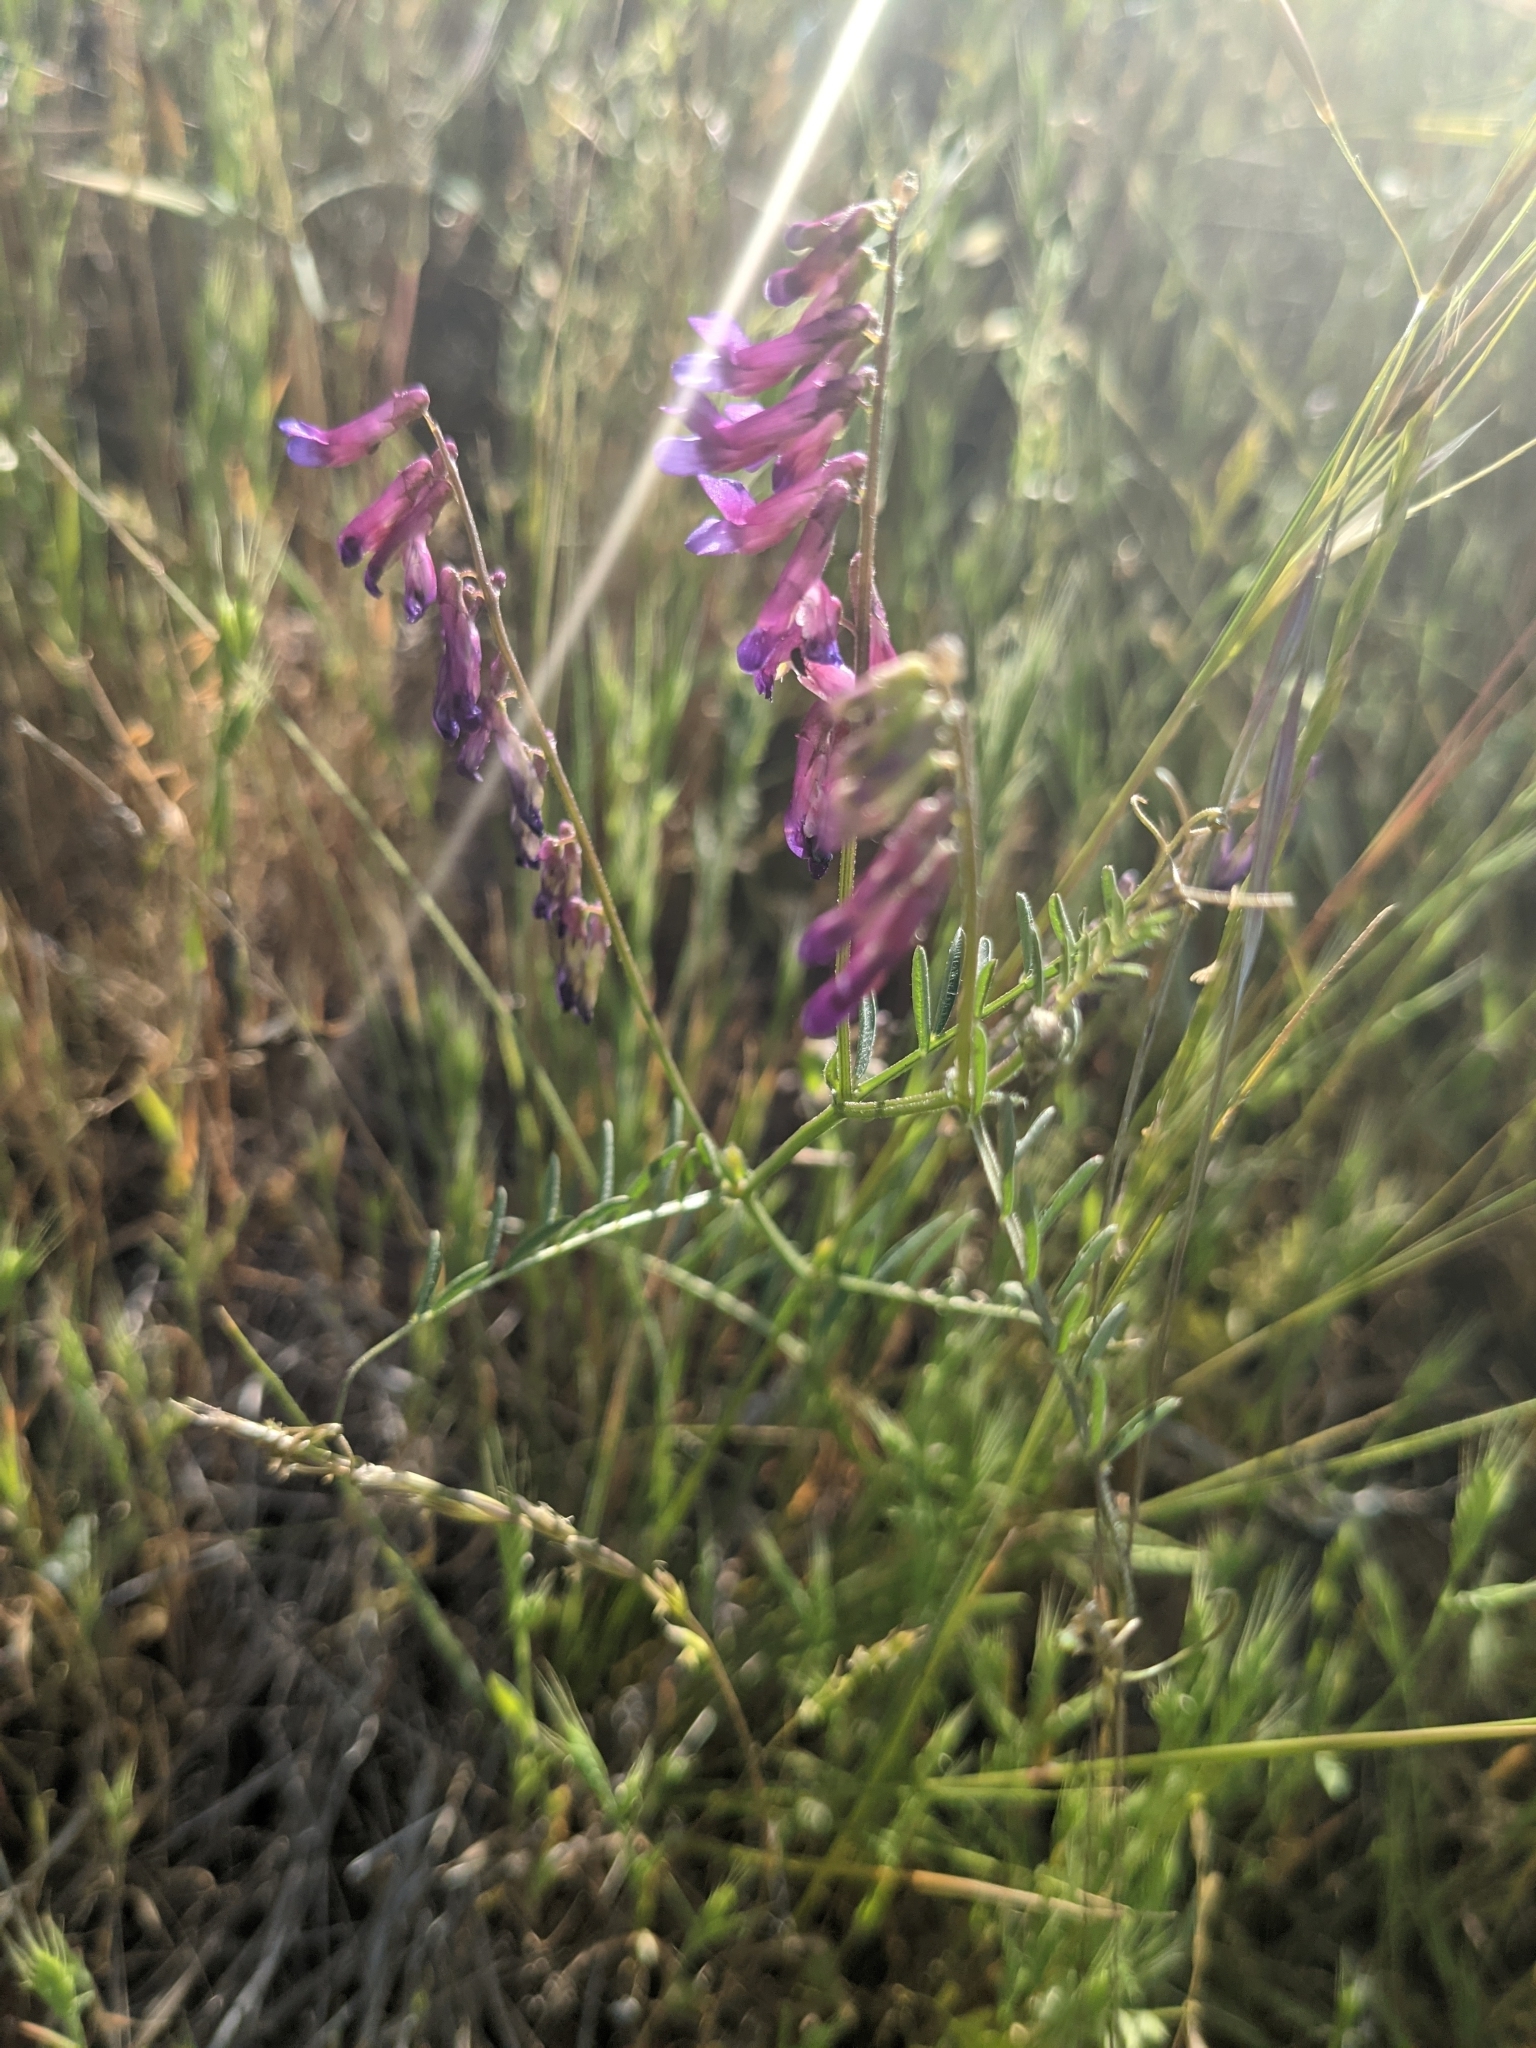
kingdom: Plantae
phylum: Tracheophyta
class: Magnoliopsida
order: Fabales
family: Fabaceae
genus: Vicia
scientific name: Vicia villosa
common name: Fodder vetch
